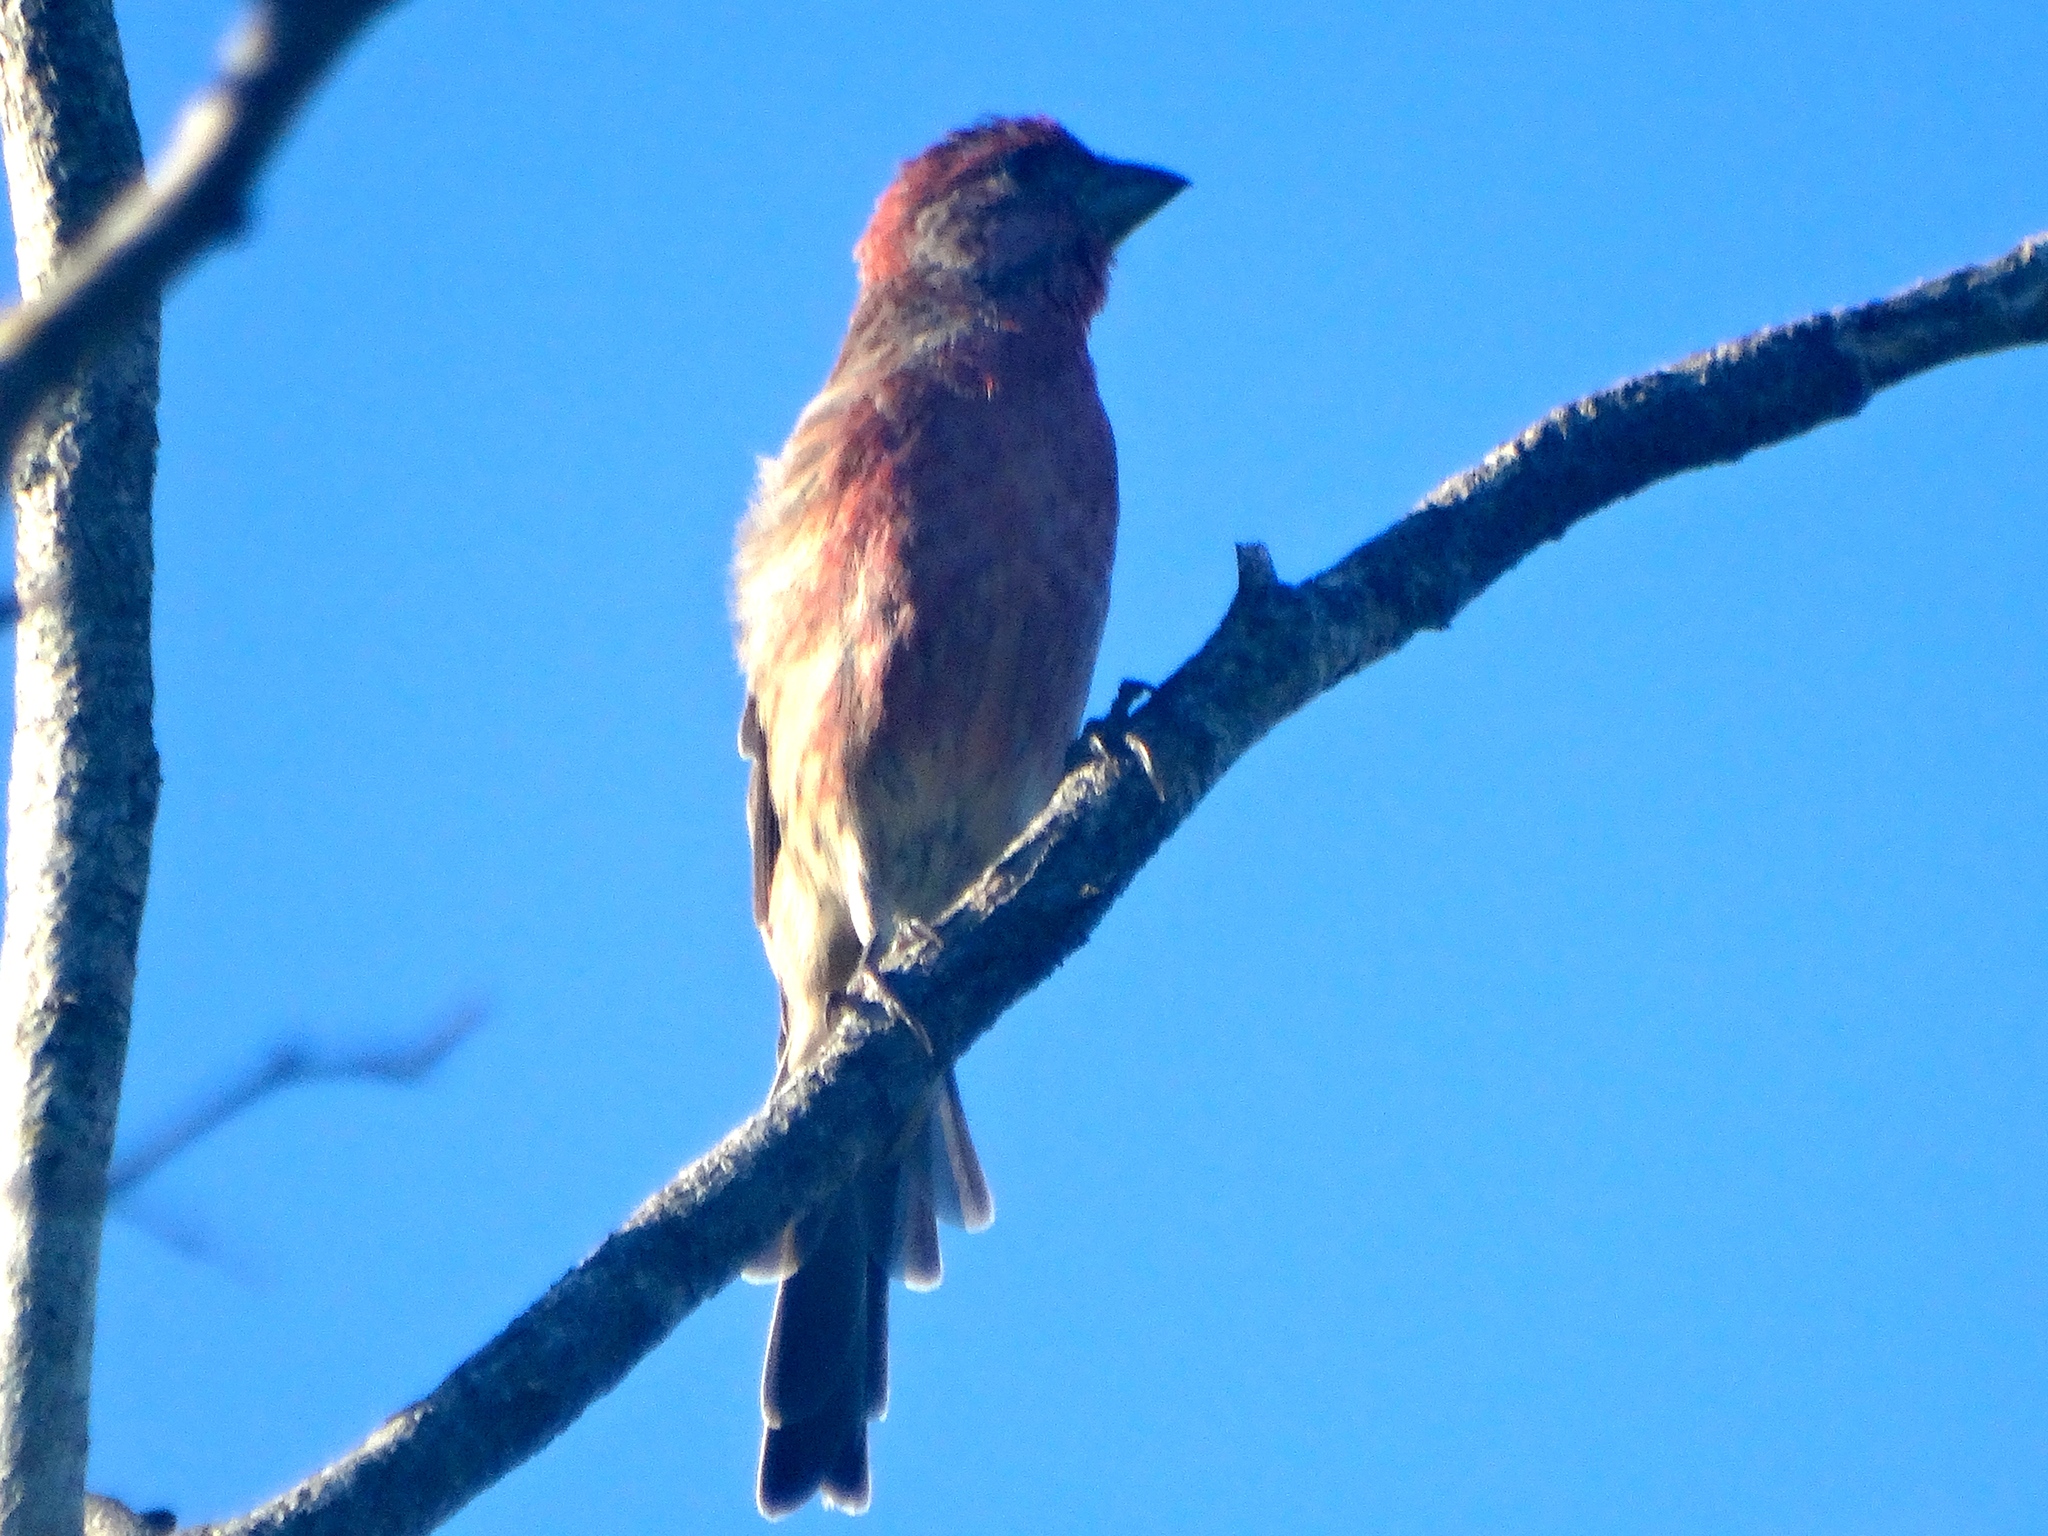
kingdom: Animalia
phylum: Chordata
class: Aves
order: Passeriformes
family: Fringillidae
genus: Haemorhous
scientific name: Haemorhous mexicanus
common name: House finch
